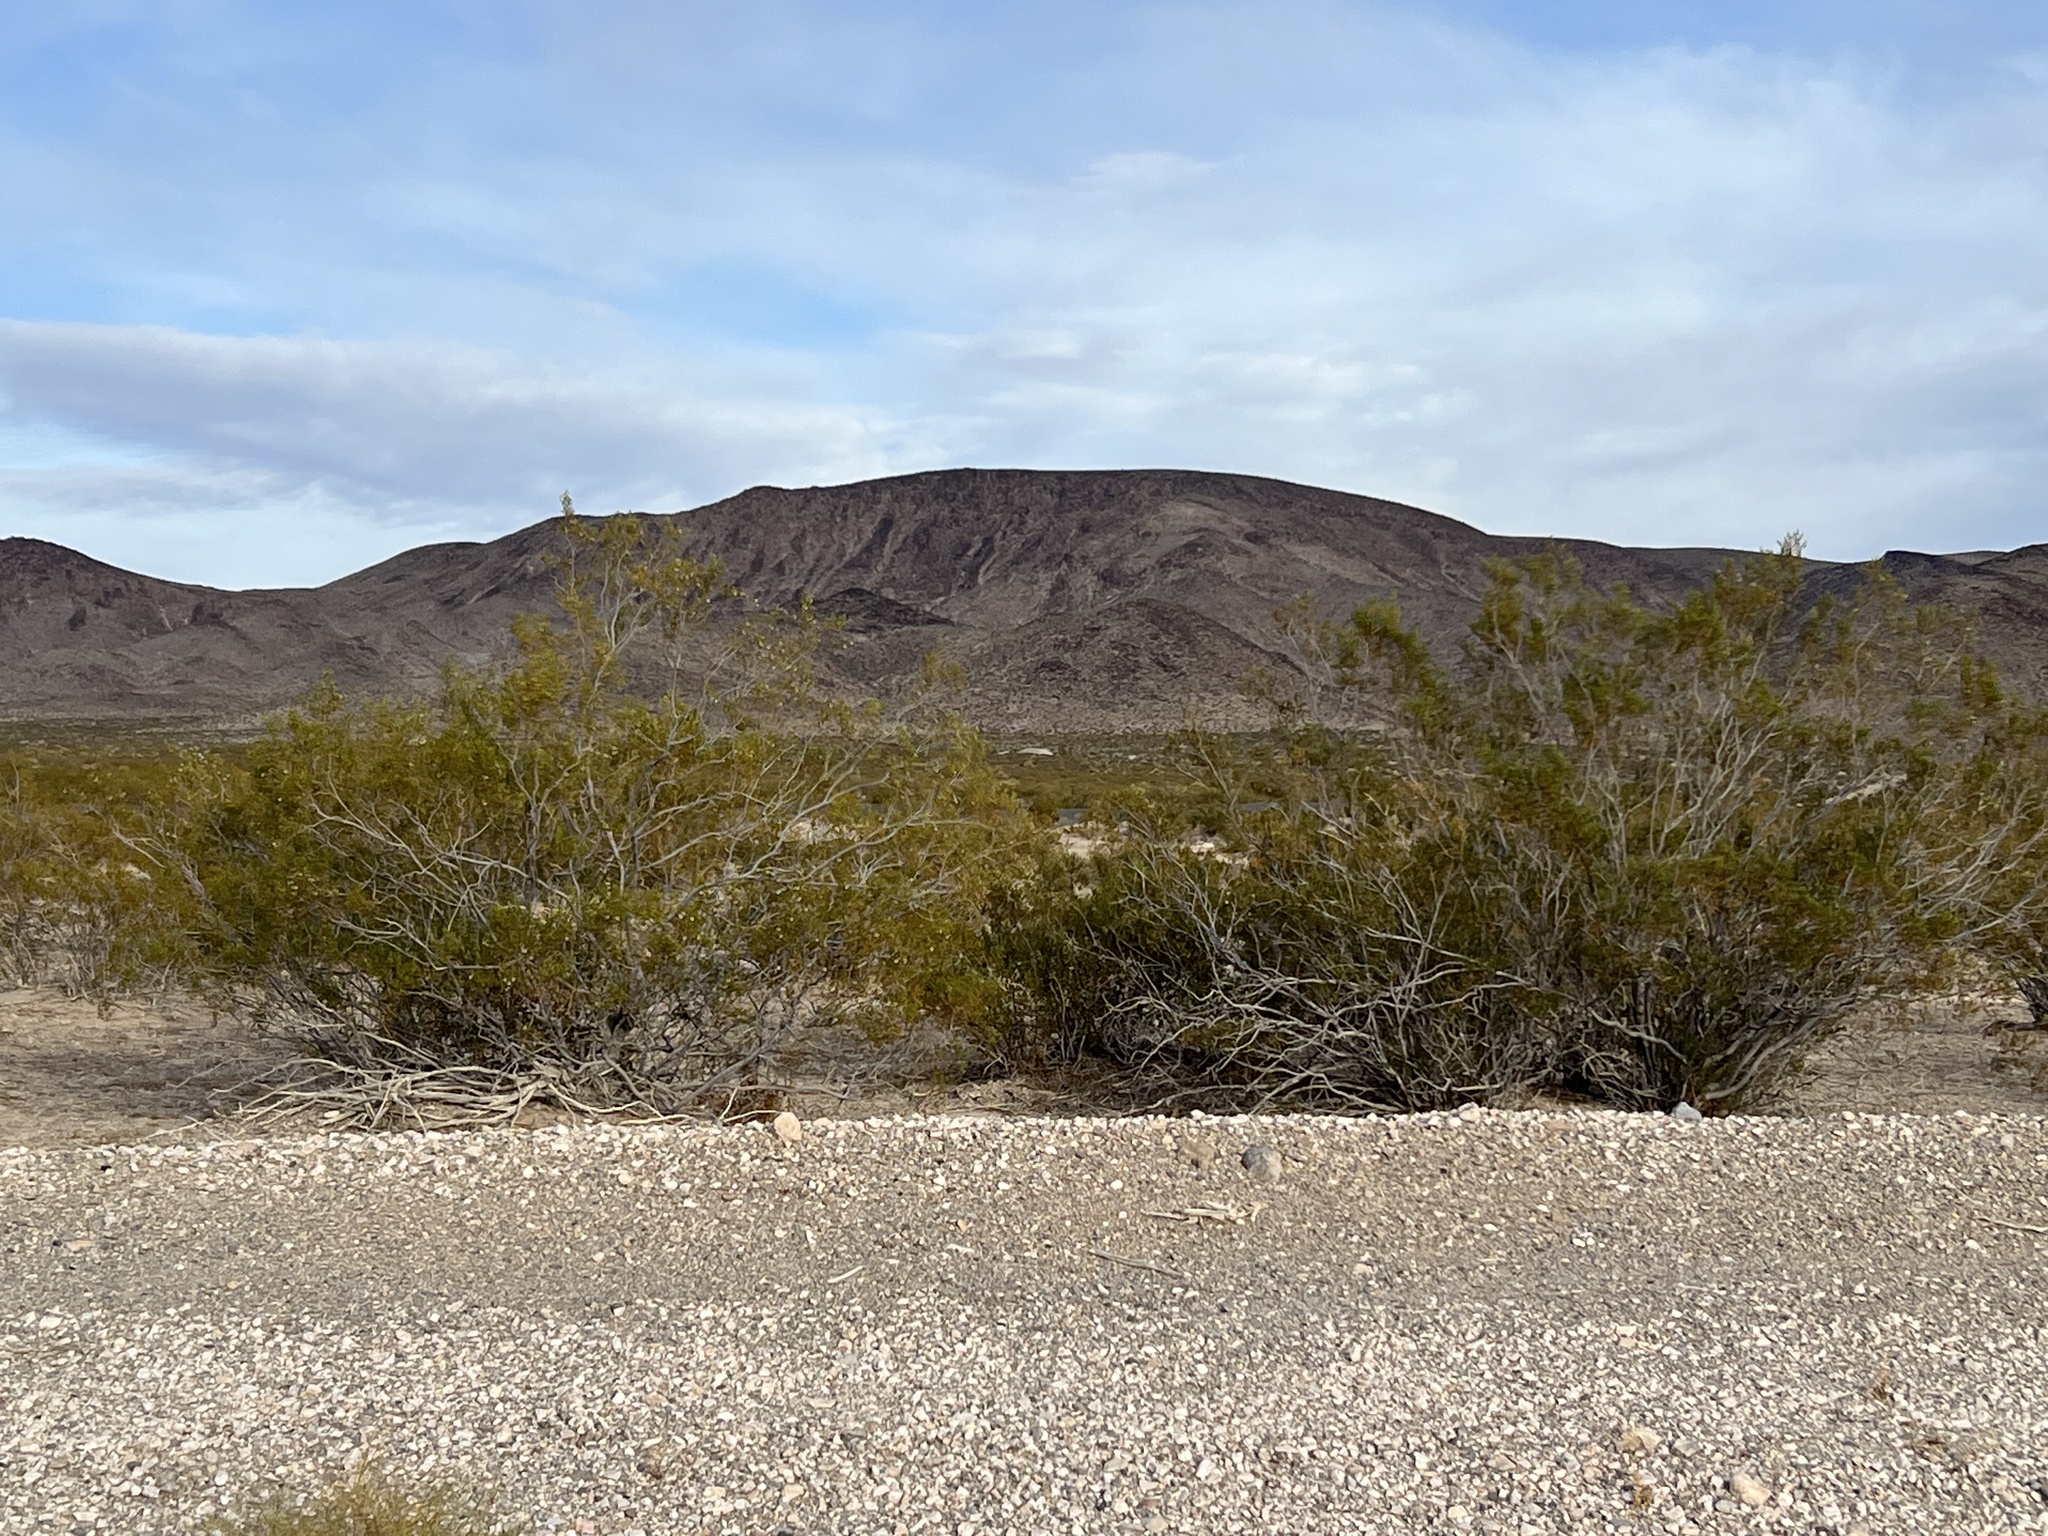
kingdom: Plantae
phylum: Tracheophyta
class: Magnoliopsida
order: Zygophyllales
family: Zygophyllaceae
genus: Larrea
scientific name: Larrea tridentata
